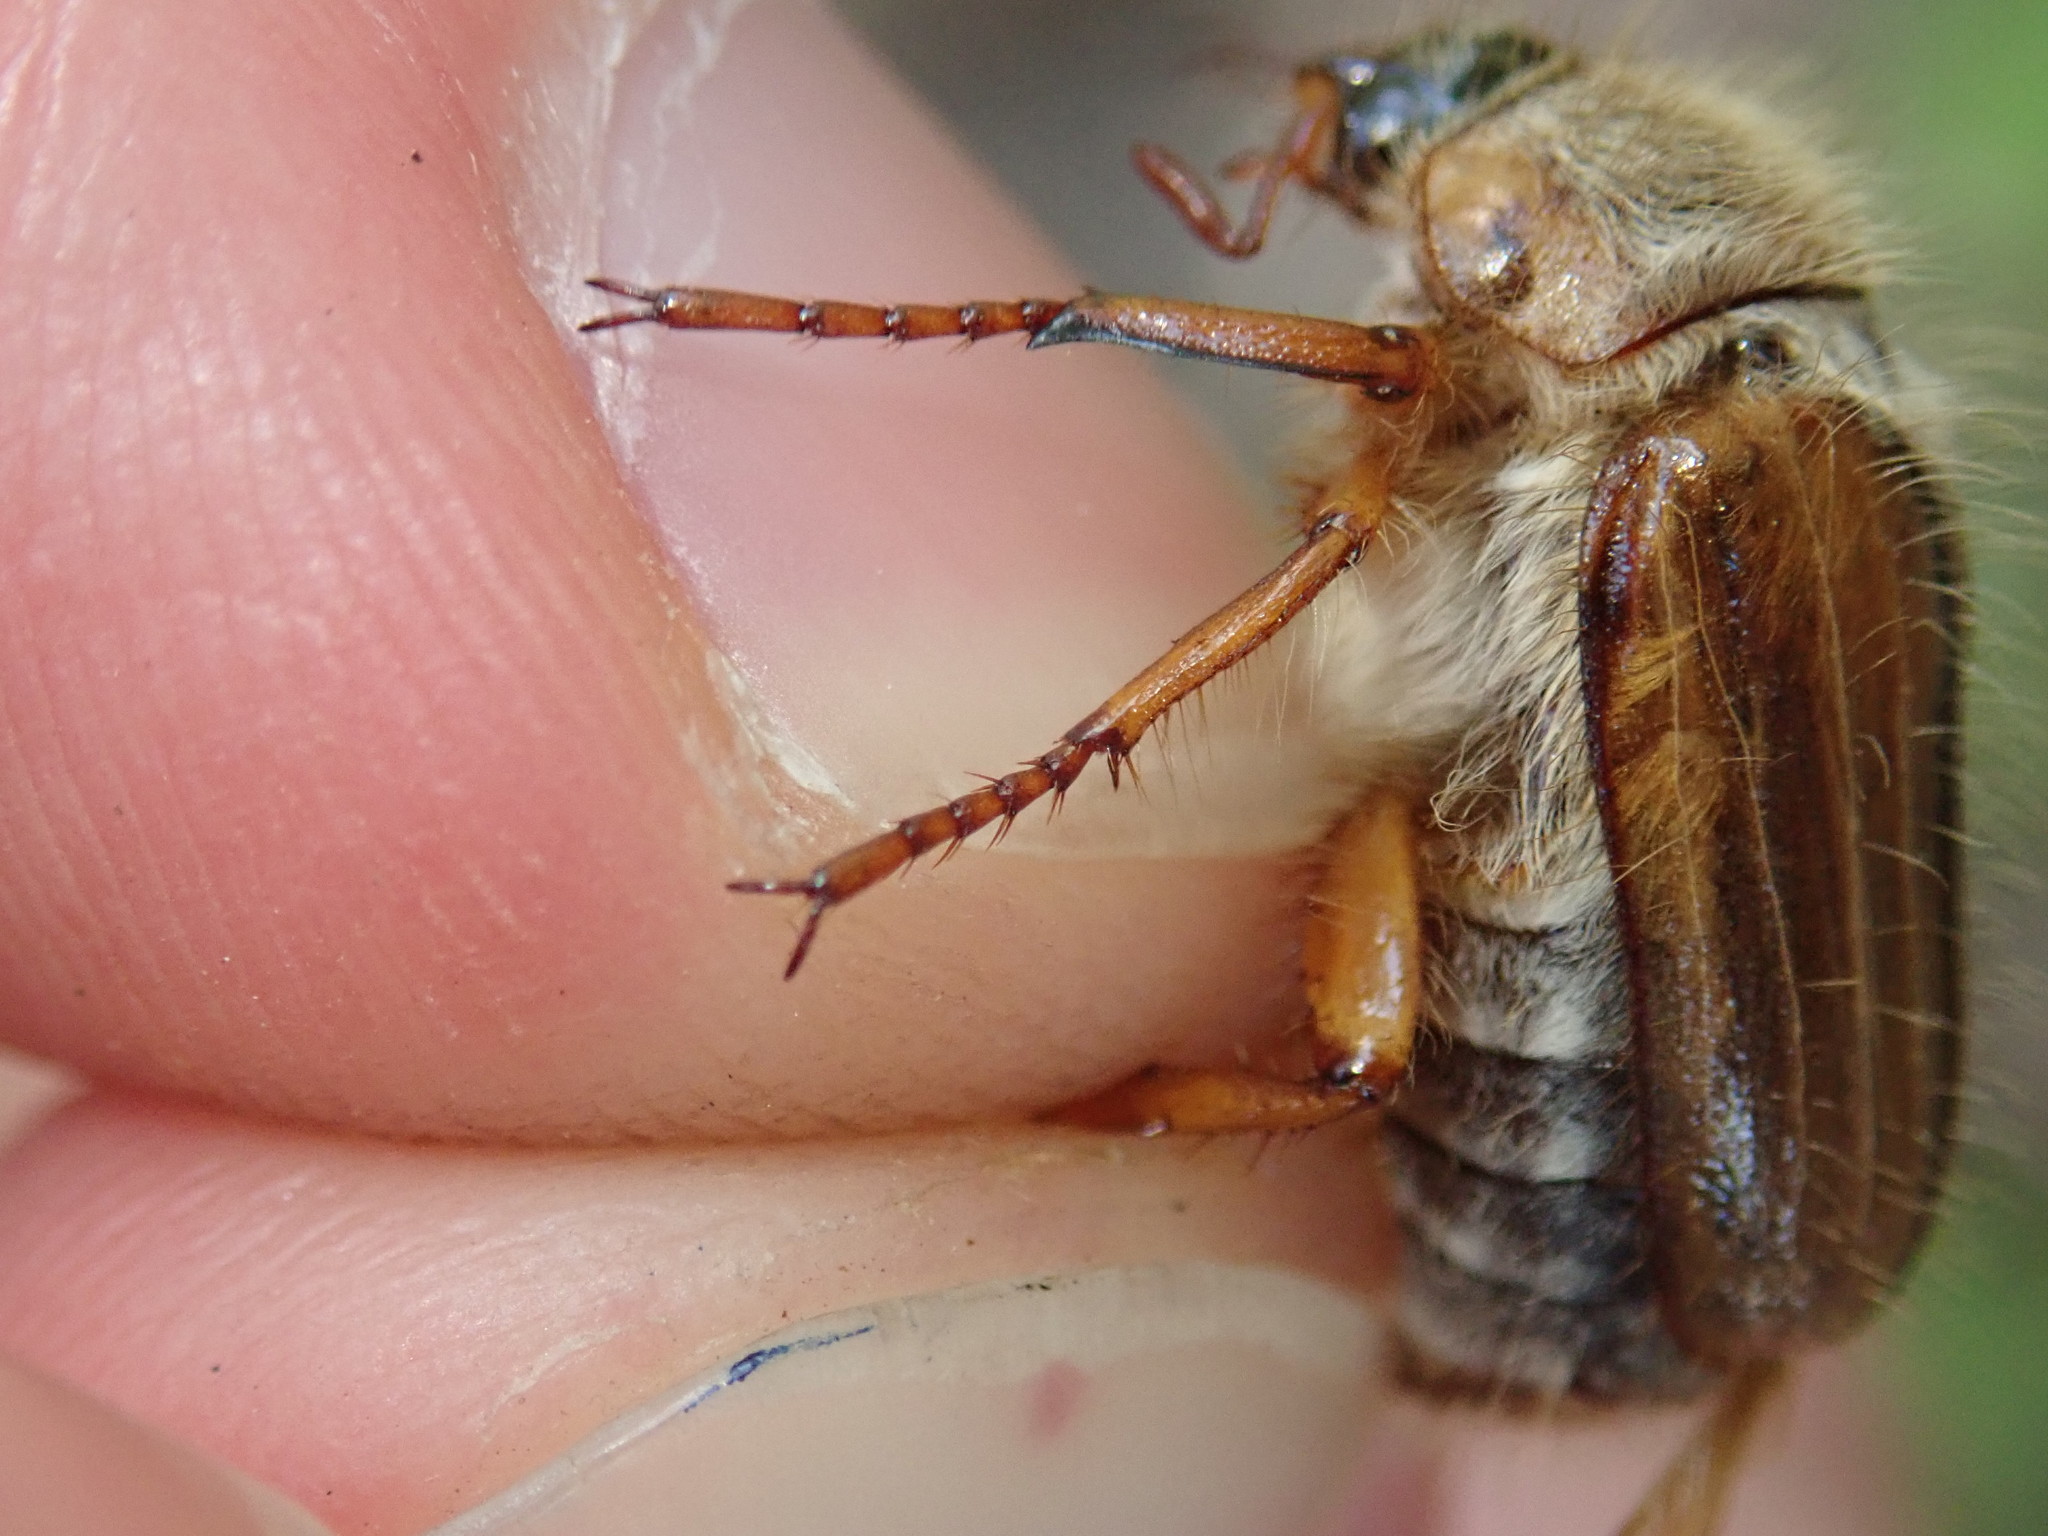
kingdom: Animalia
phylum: Arthropoda
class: Insecta
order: Coleoptera
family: Scarabaeidae
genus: Amphimallon
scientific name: Amphimallon solstitiale
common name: Summer chafer
